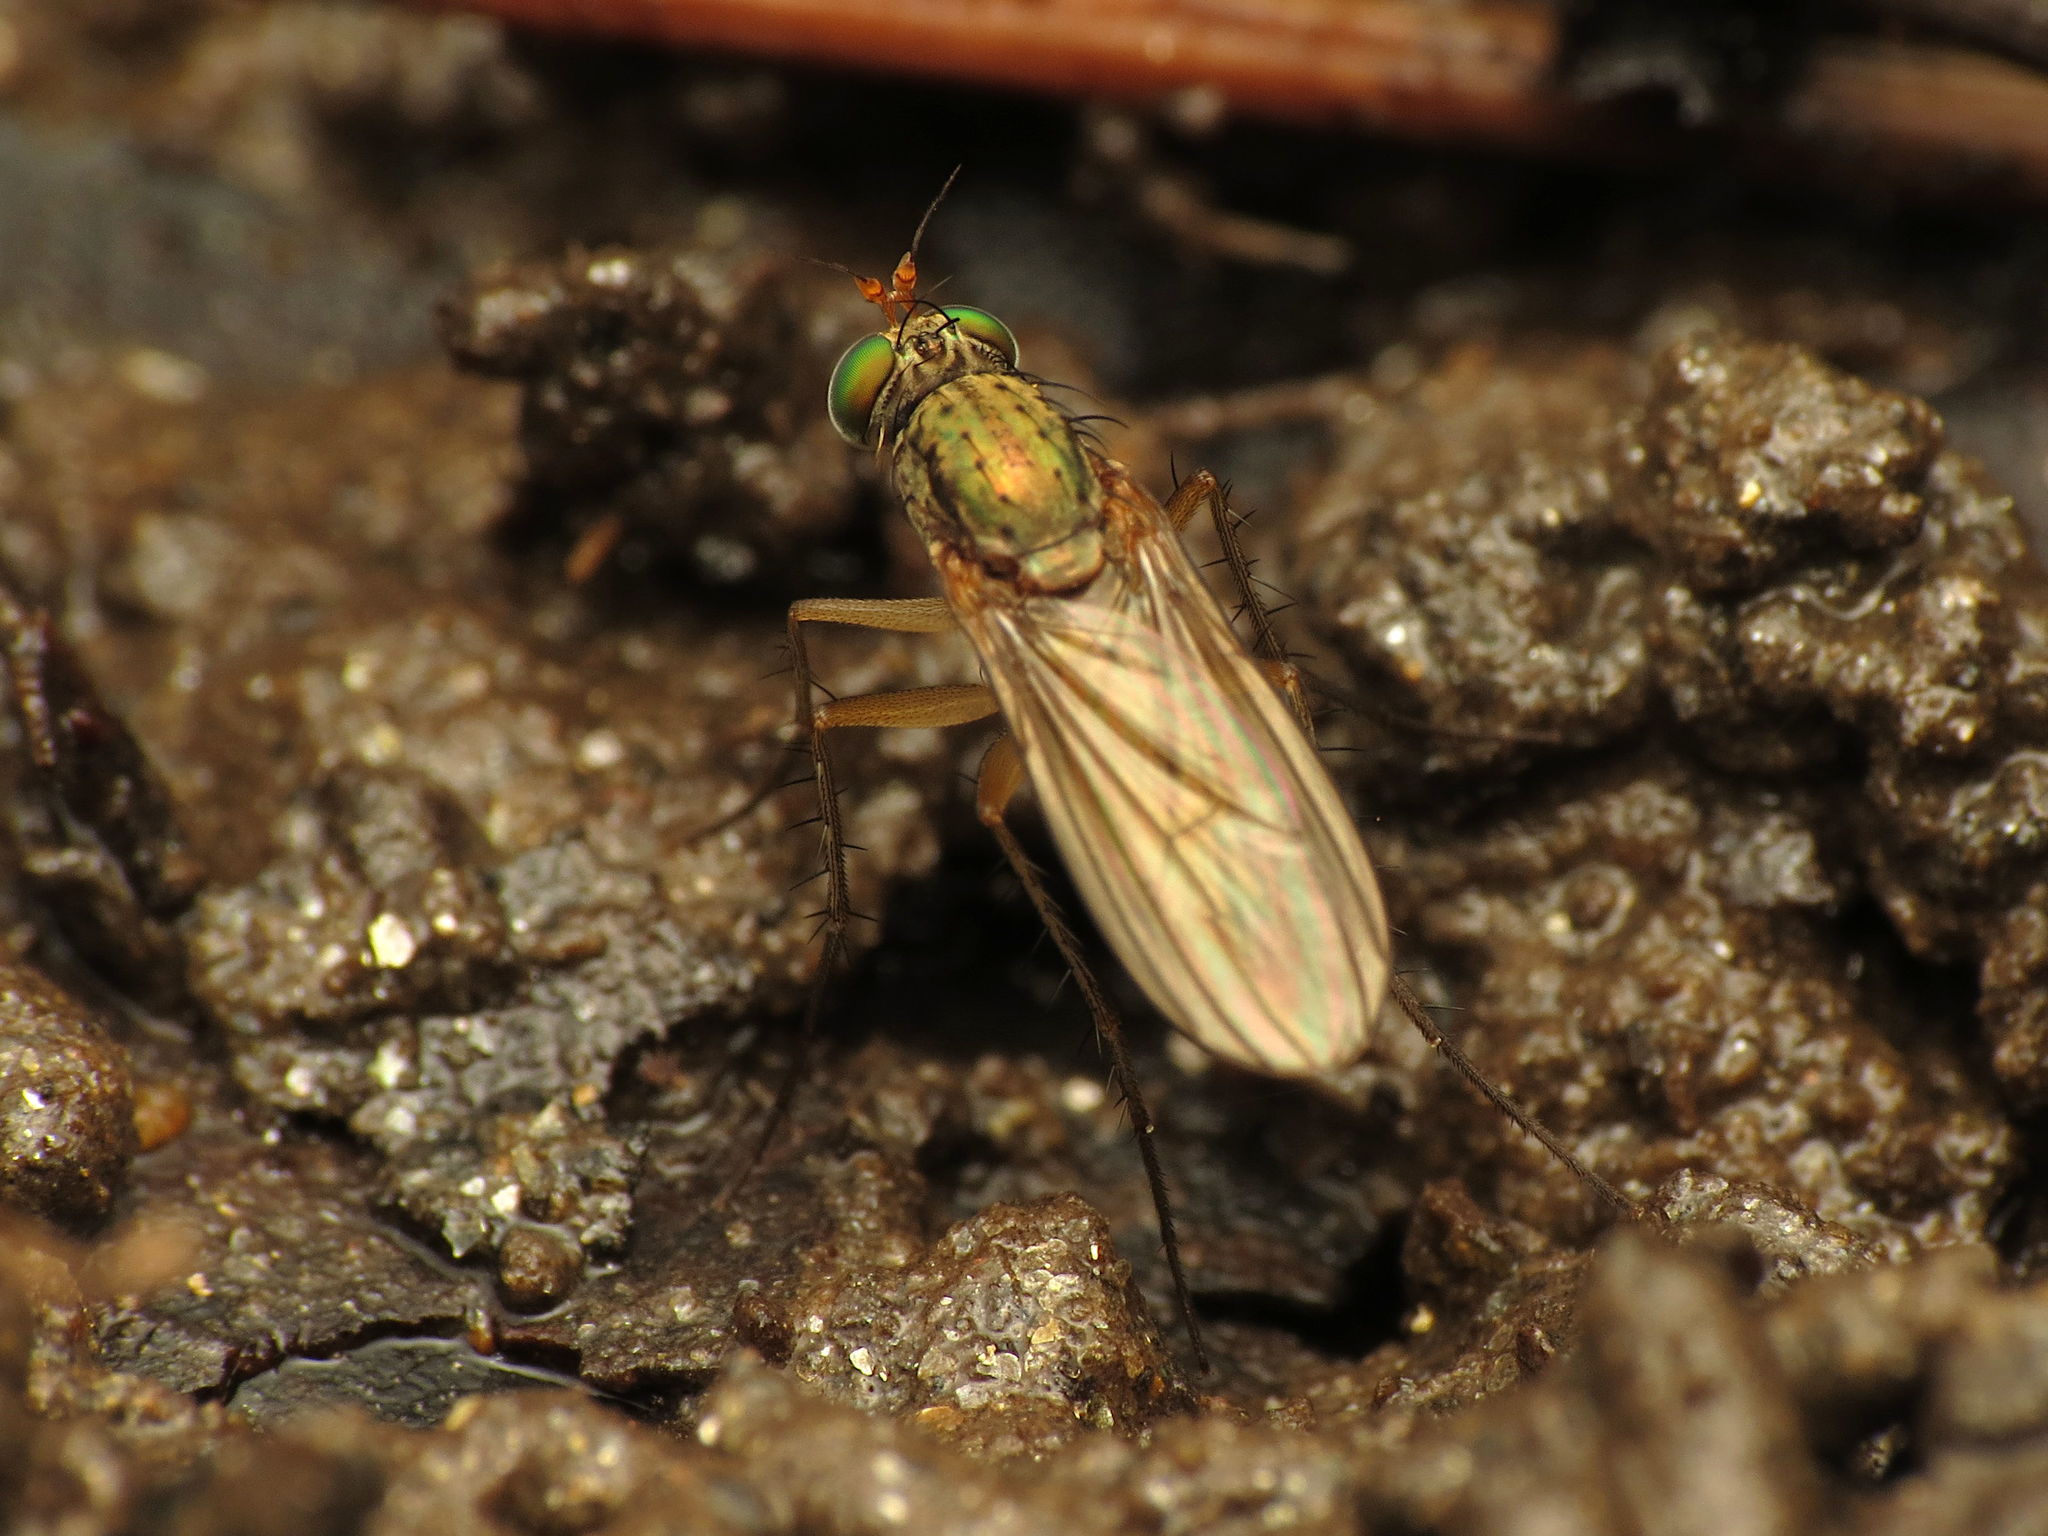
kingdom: Animalia
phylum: Arthropoda
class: Insecta
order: Diptera
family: Dolichopodidae
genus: Dolichopus
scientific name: Dolichopus
